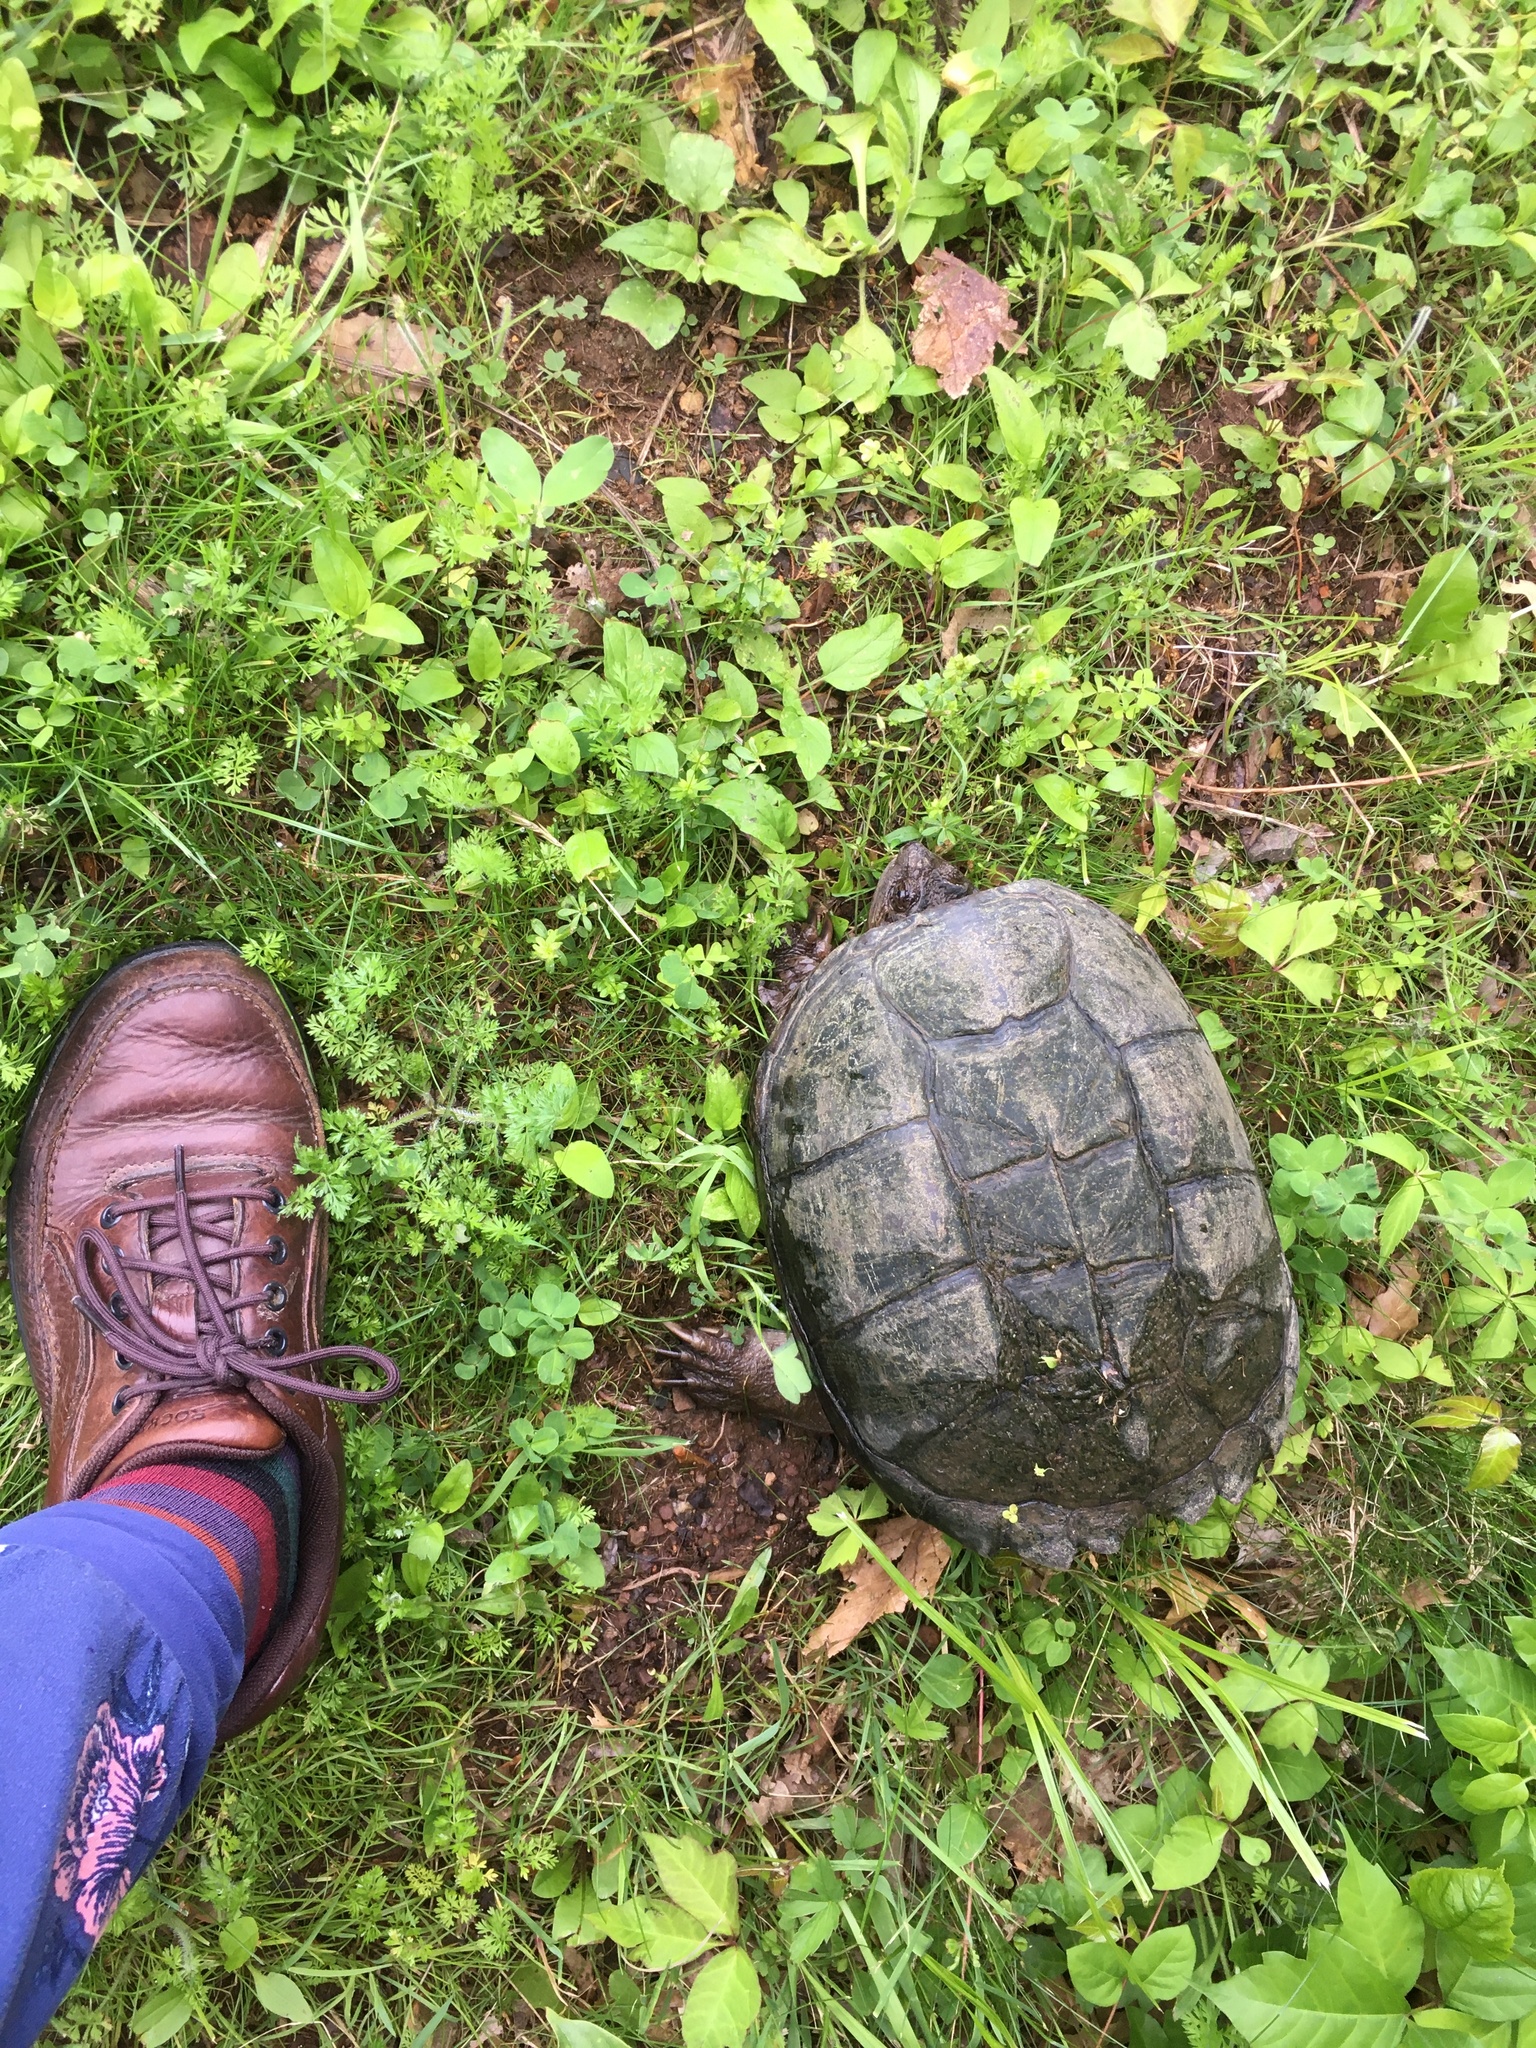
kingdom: Animalia
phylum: Chordata
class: Testudines
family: Chelydridae
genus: Chelydra
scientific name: Chelydra serpentina
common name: Common snapping turtle
